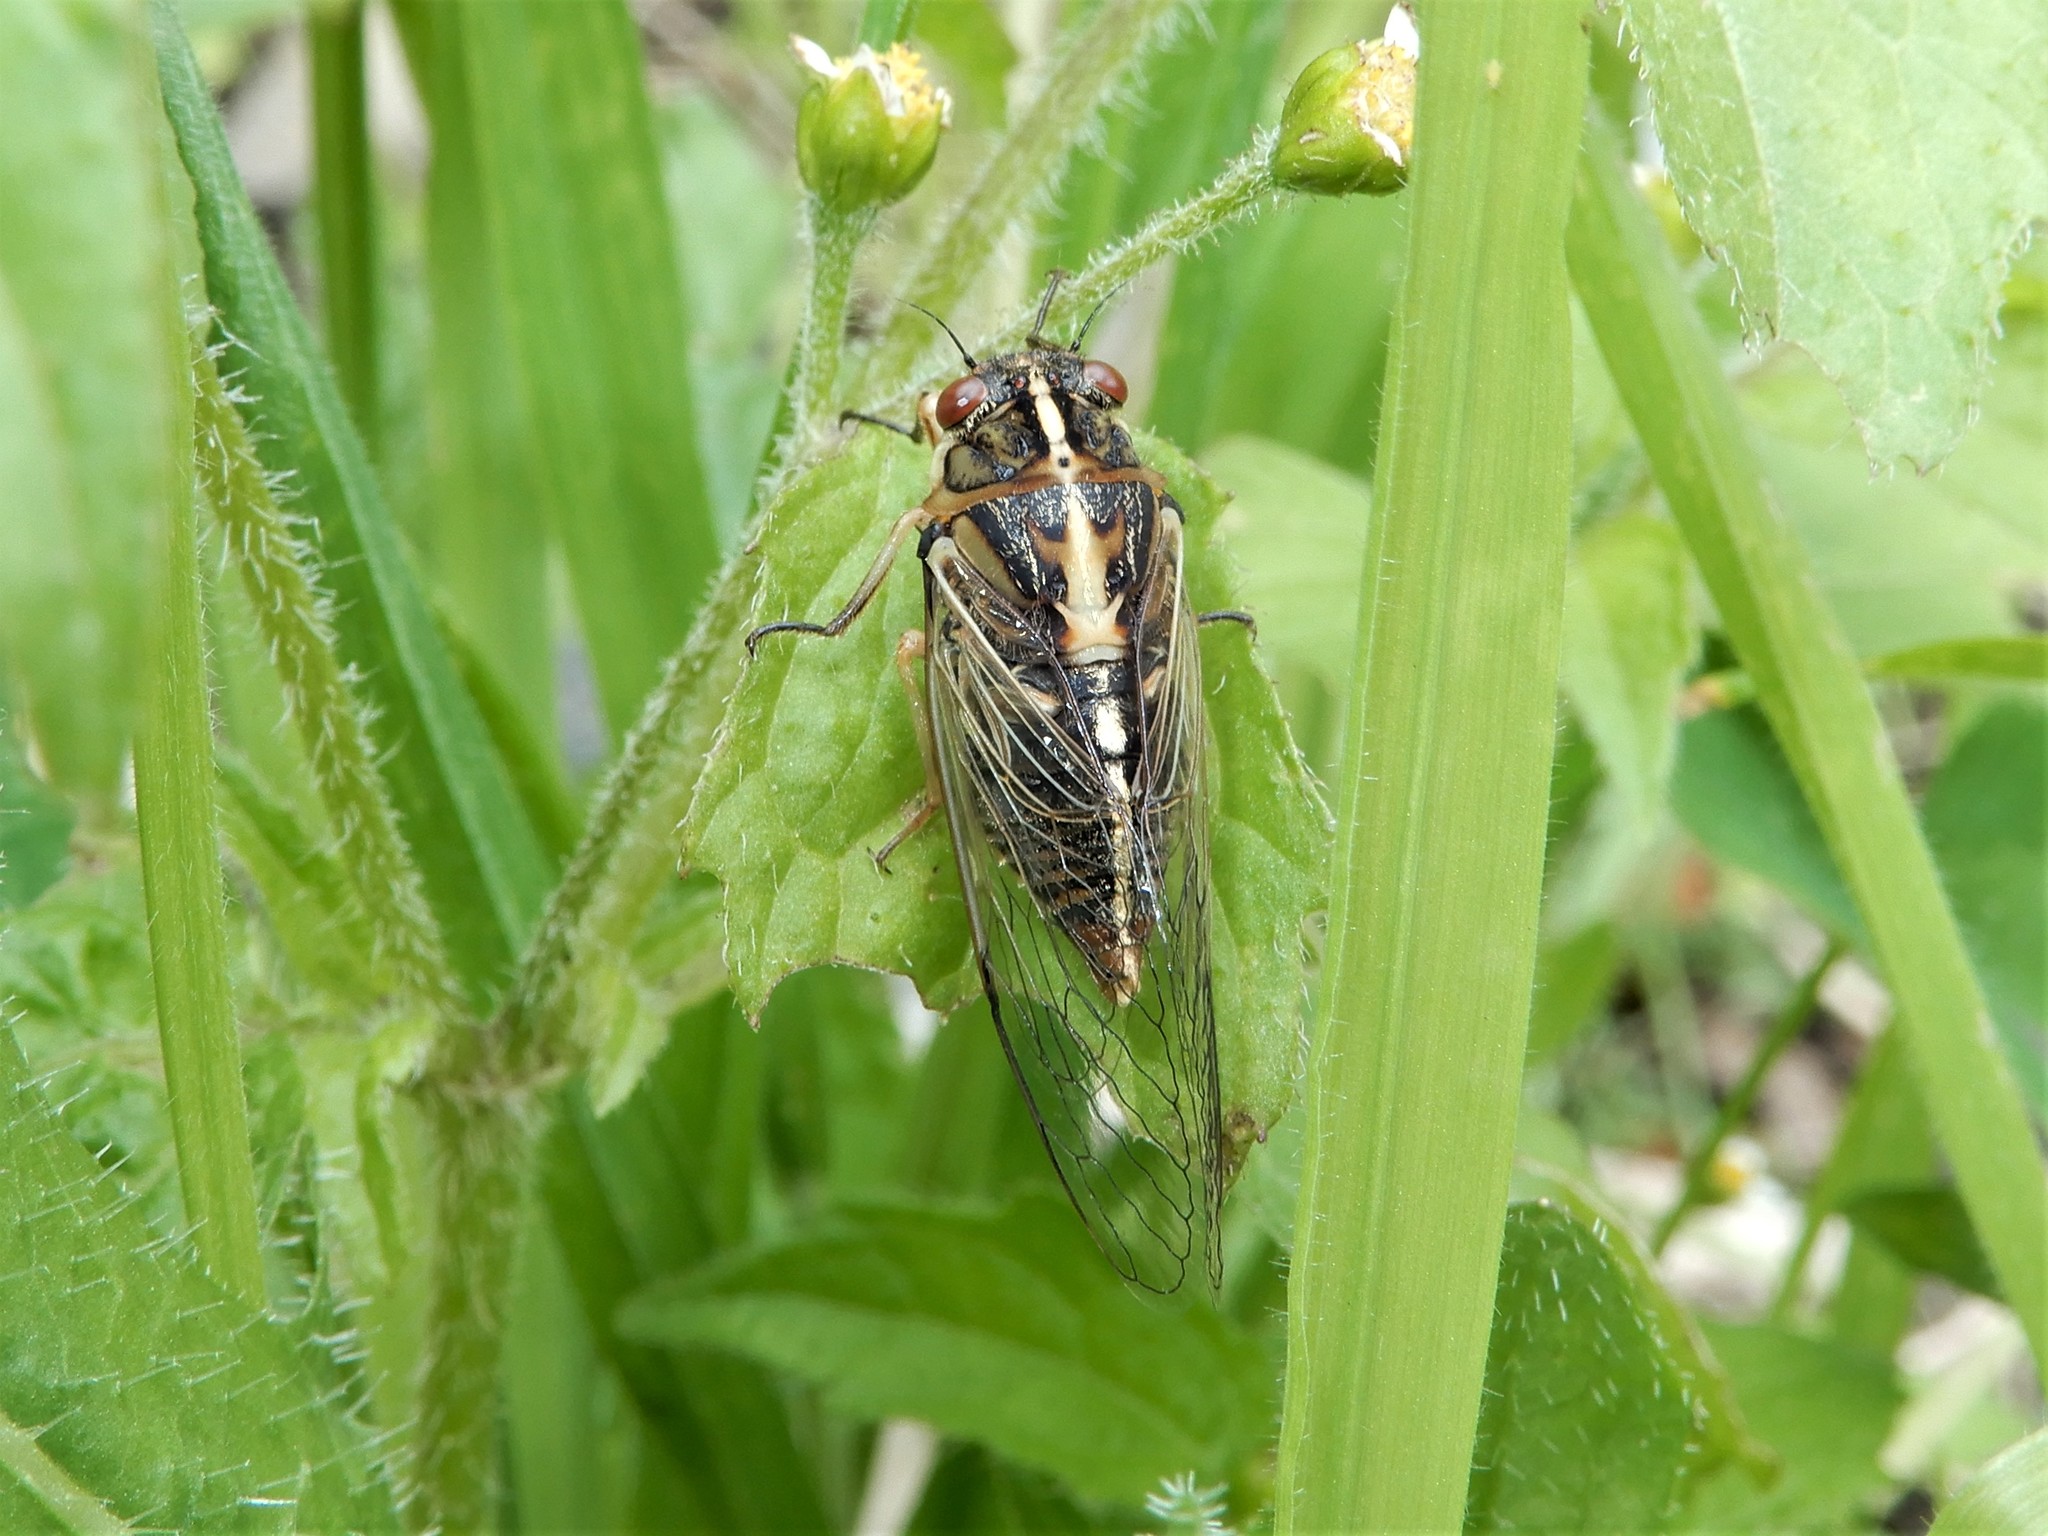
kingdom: Animalia
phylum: Arthropoda
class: Insecta
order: Hemiptera
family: Cicadidae
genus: Kikihia
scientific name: Kikihia muta
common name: Variable cicada
